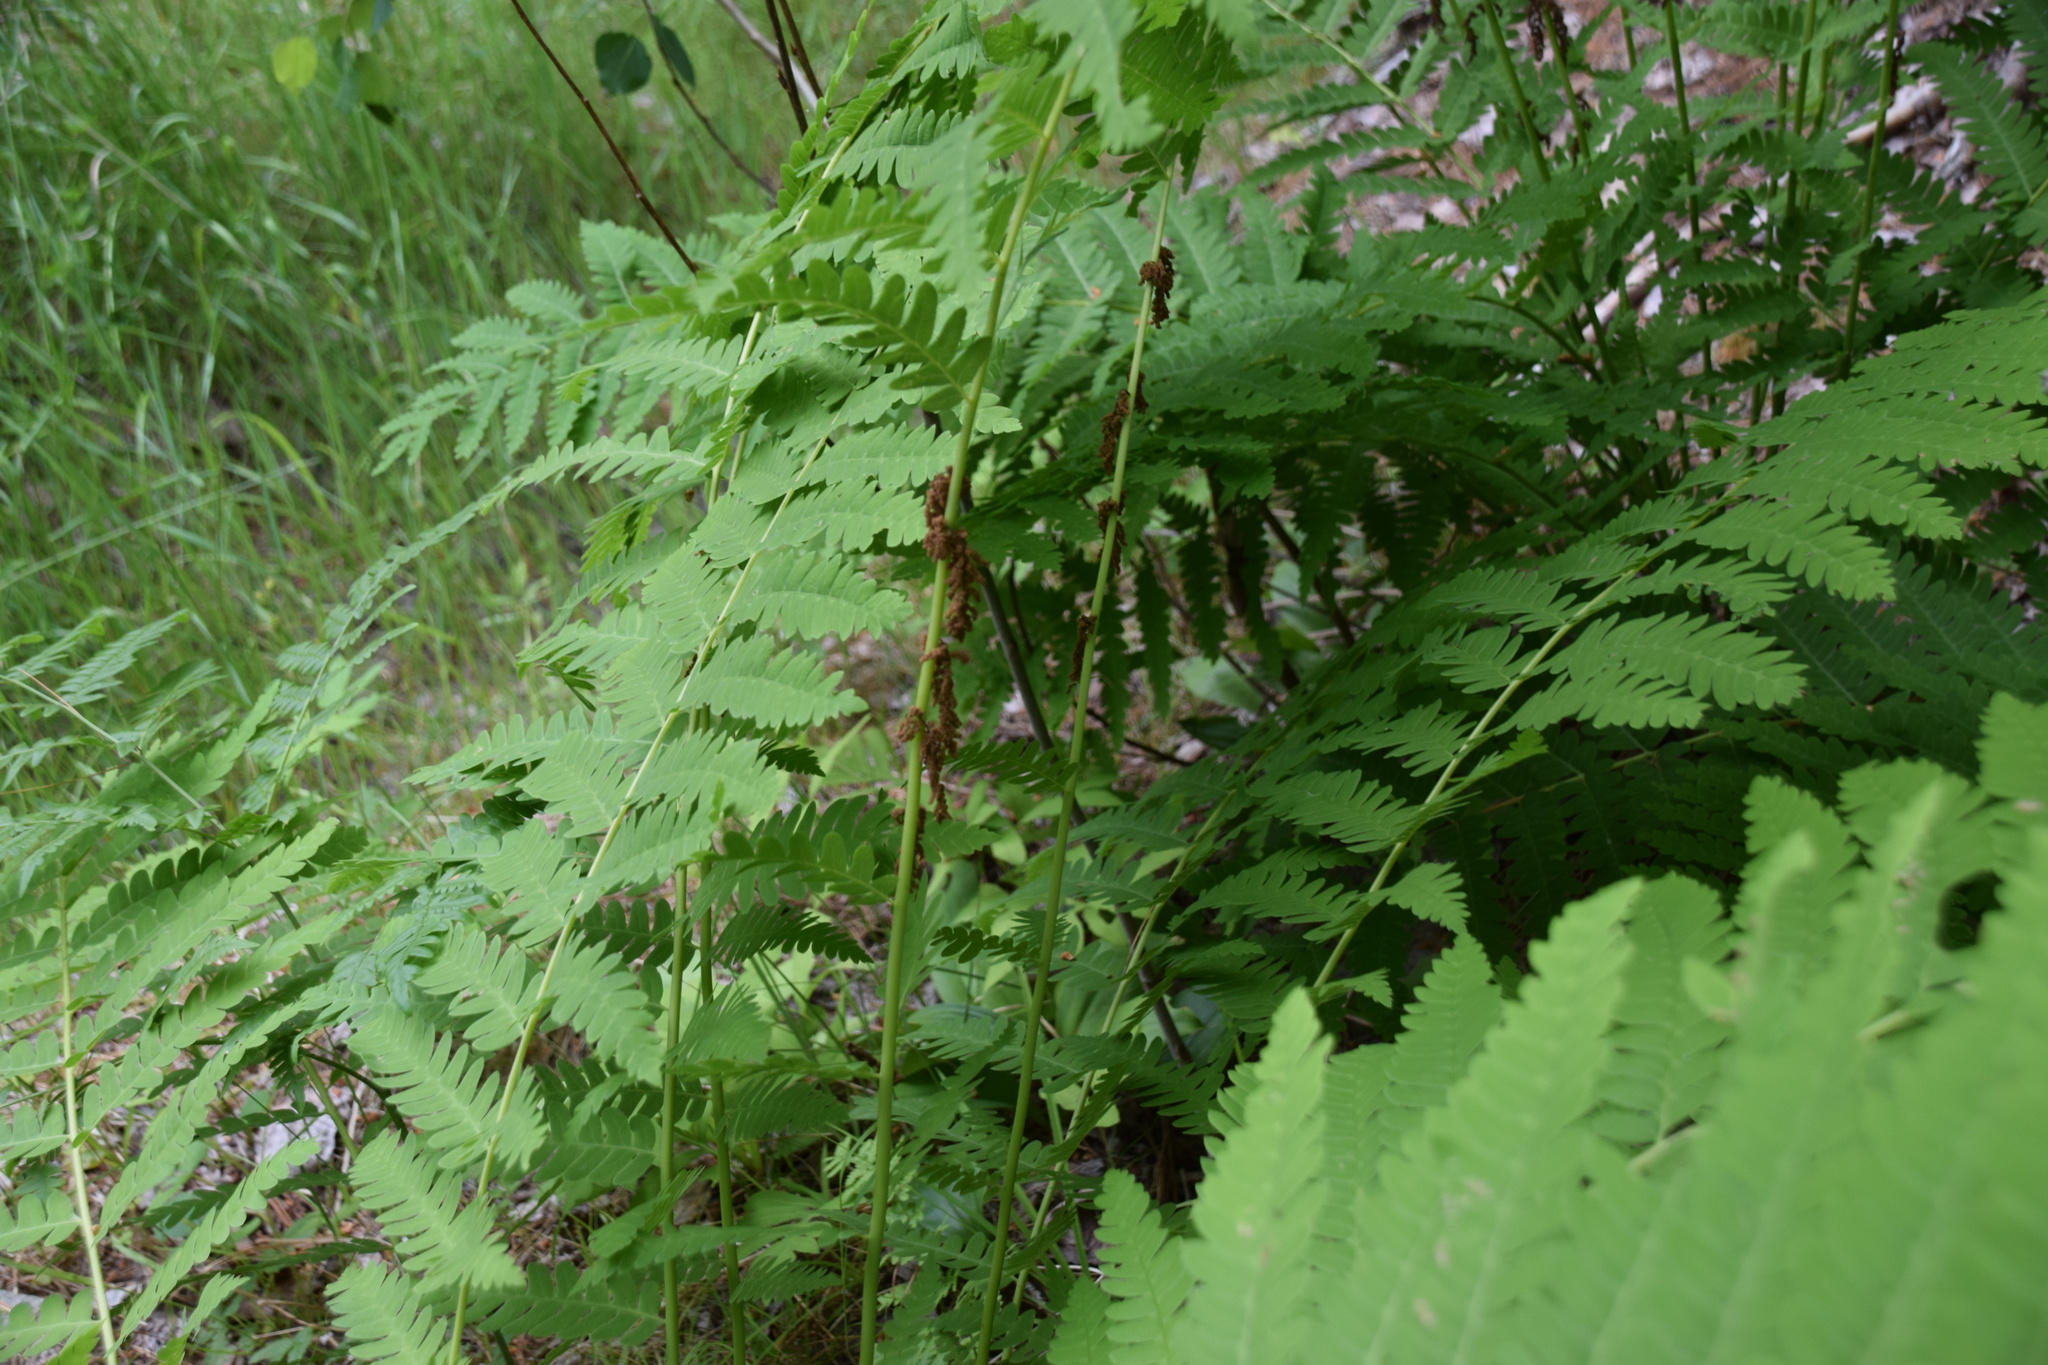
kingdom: Plantae
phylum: Tracheophyta
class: Polypodiopsida
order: Osmundales
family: Osmundaceae
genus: Claytosmunda
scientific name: Claytosmunda claytoniana
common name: Clayton's fern
